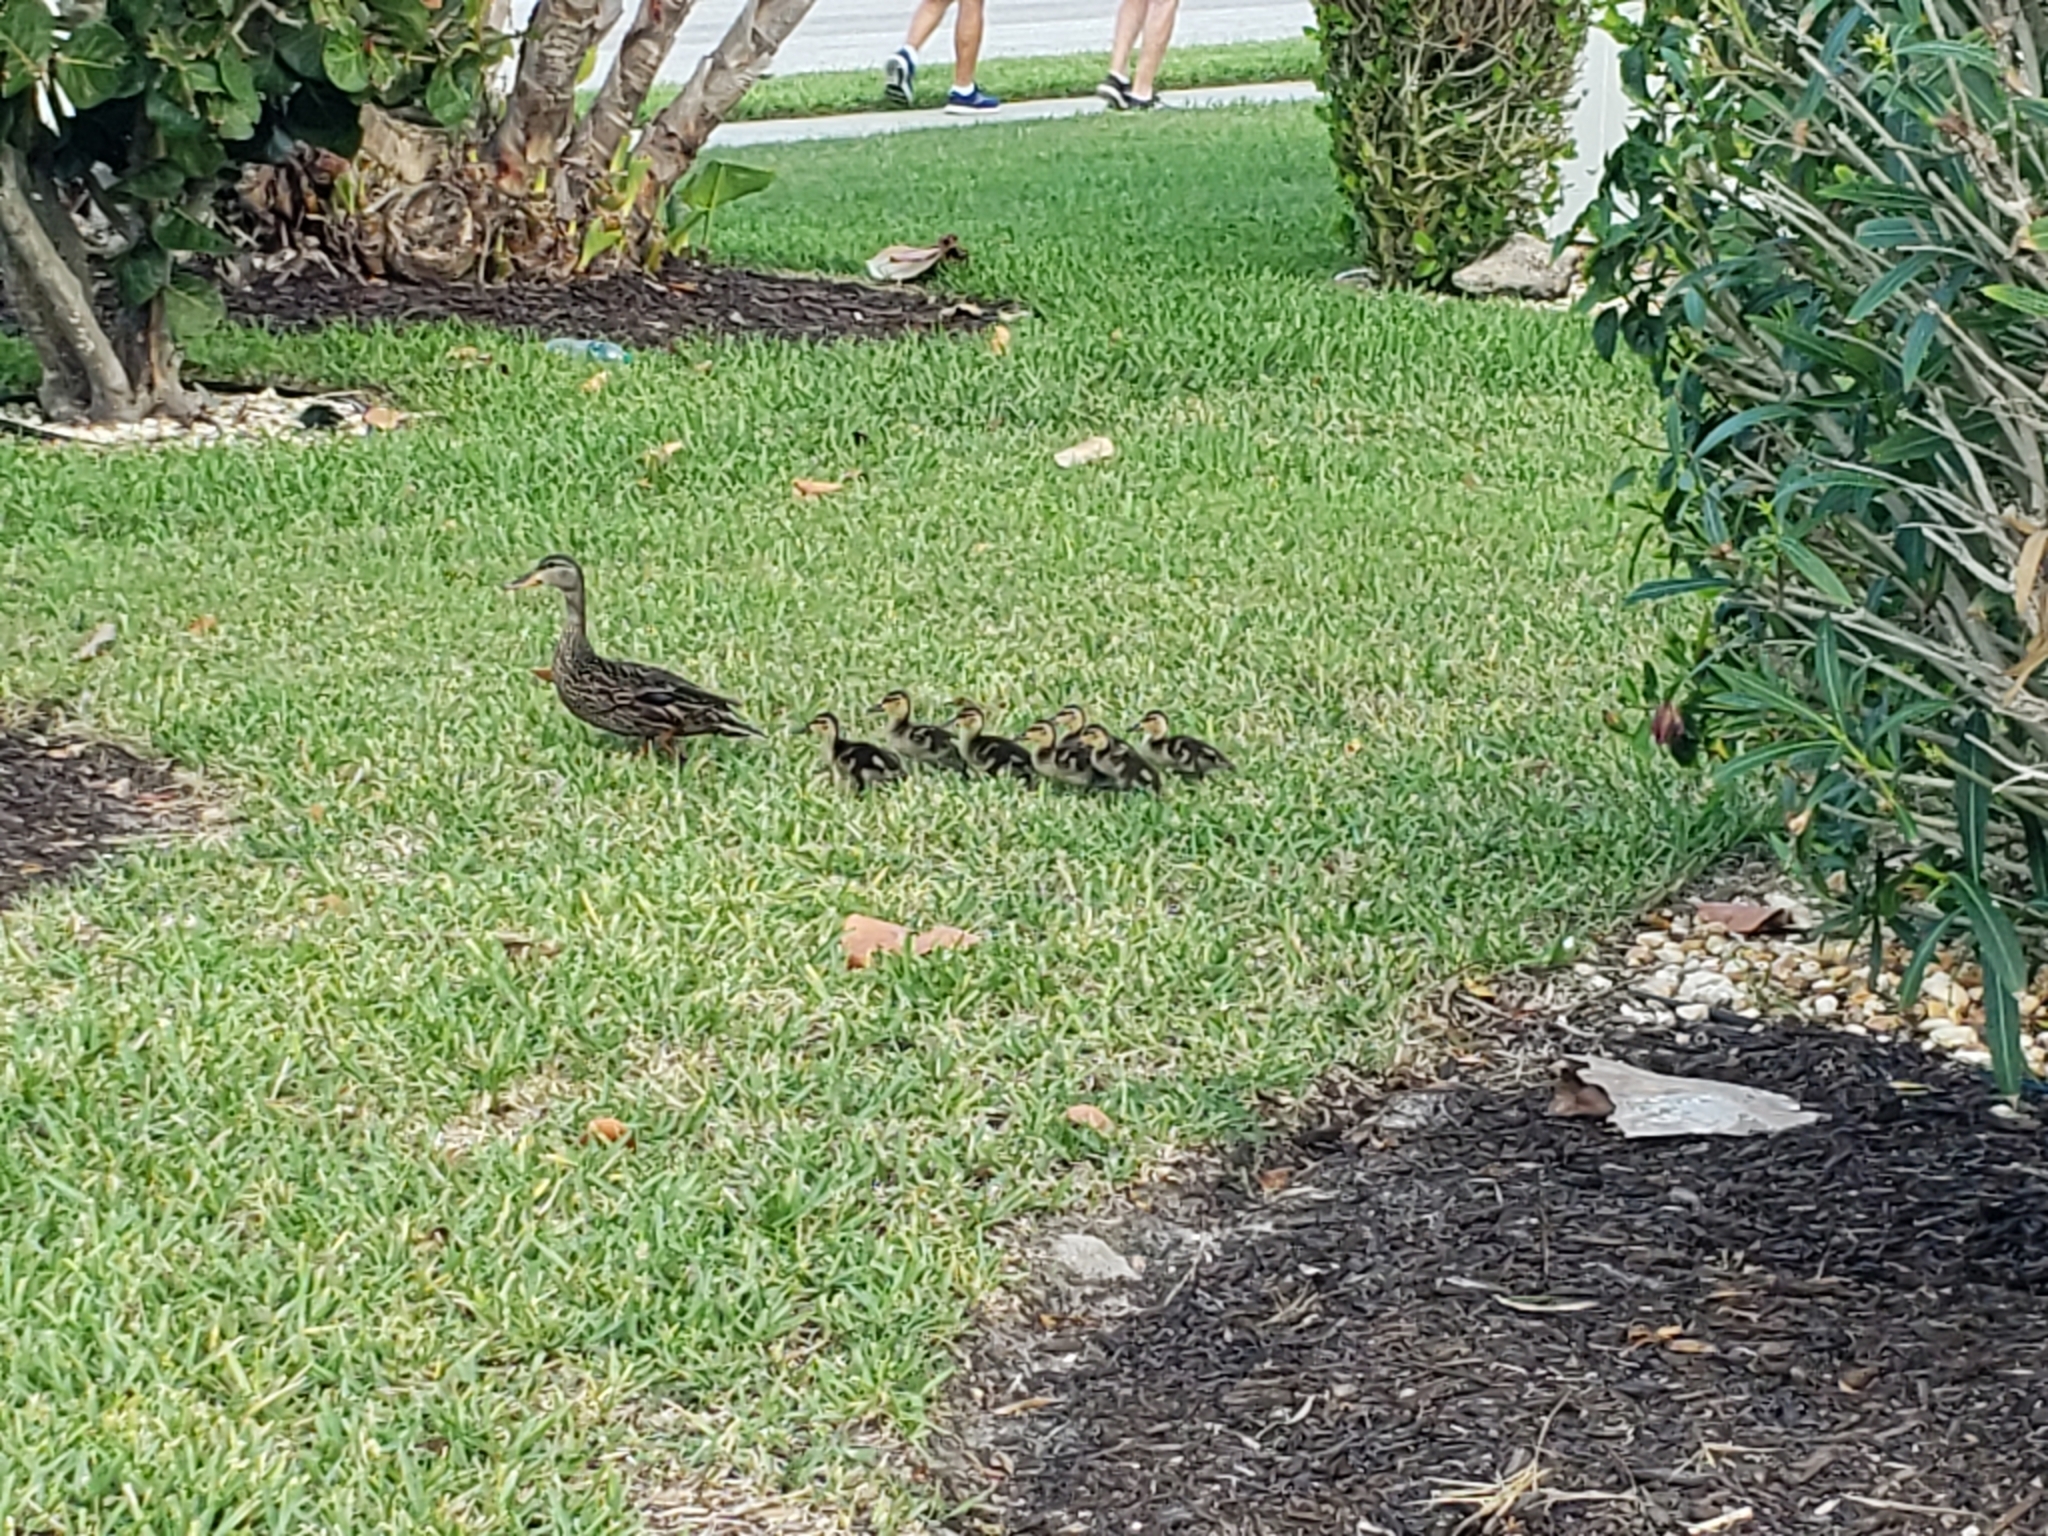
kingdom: Animalia
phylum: Chordata
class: Aves
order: Anseriformes
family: Anatidae
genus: Anas
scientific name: Anas platyrhynchos
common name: Mallard
